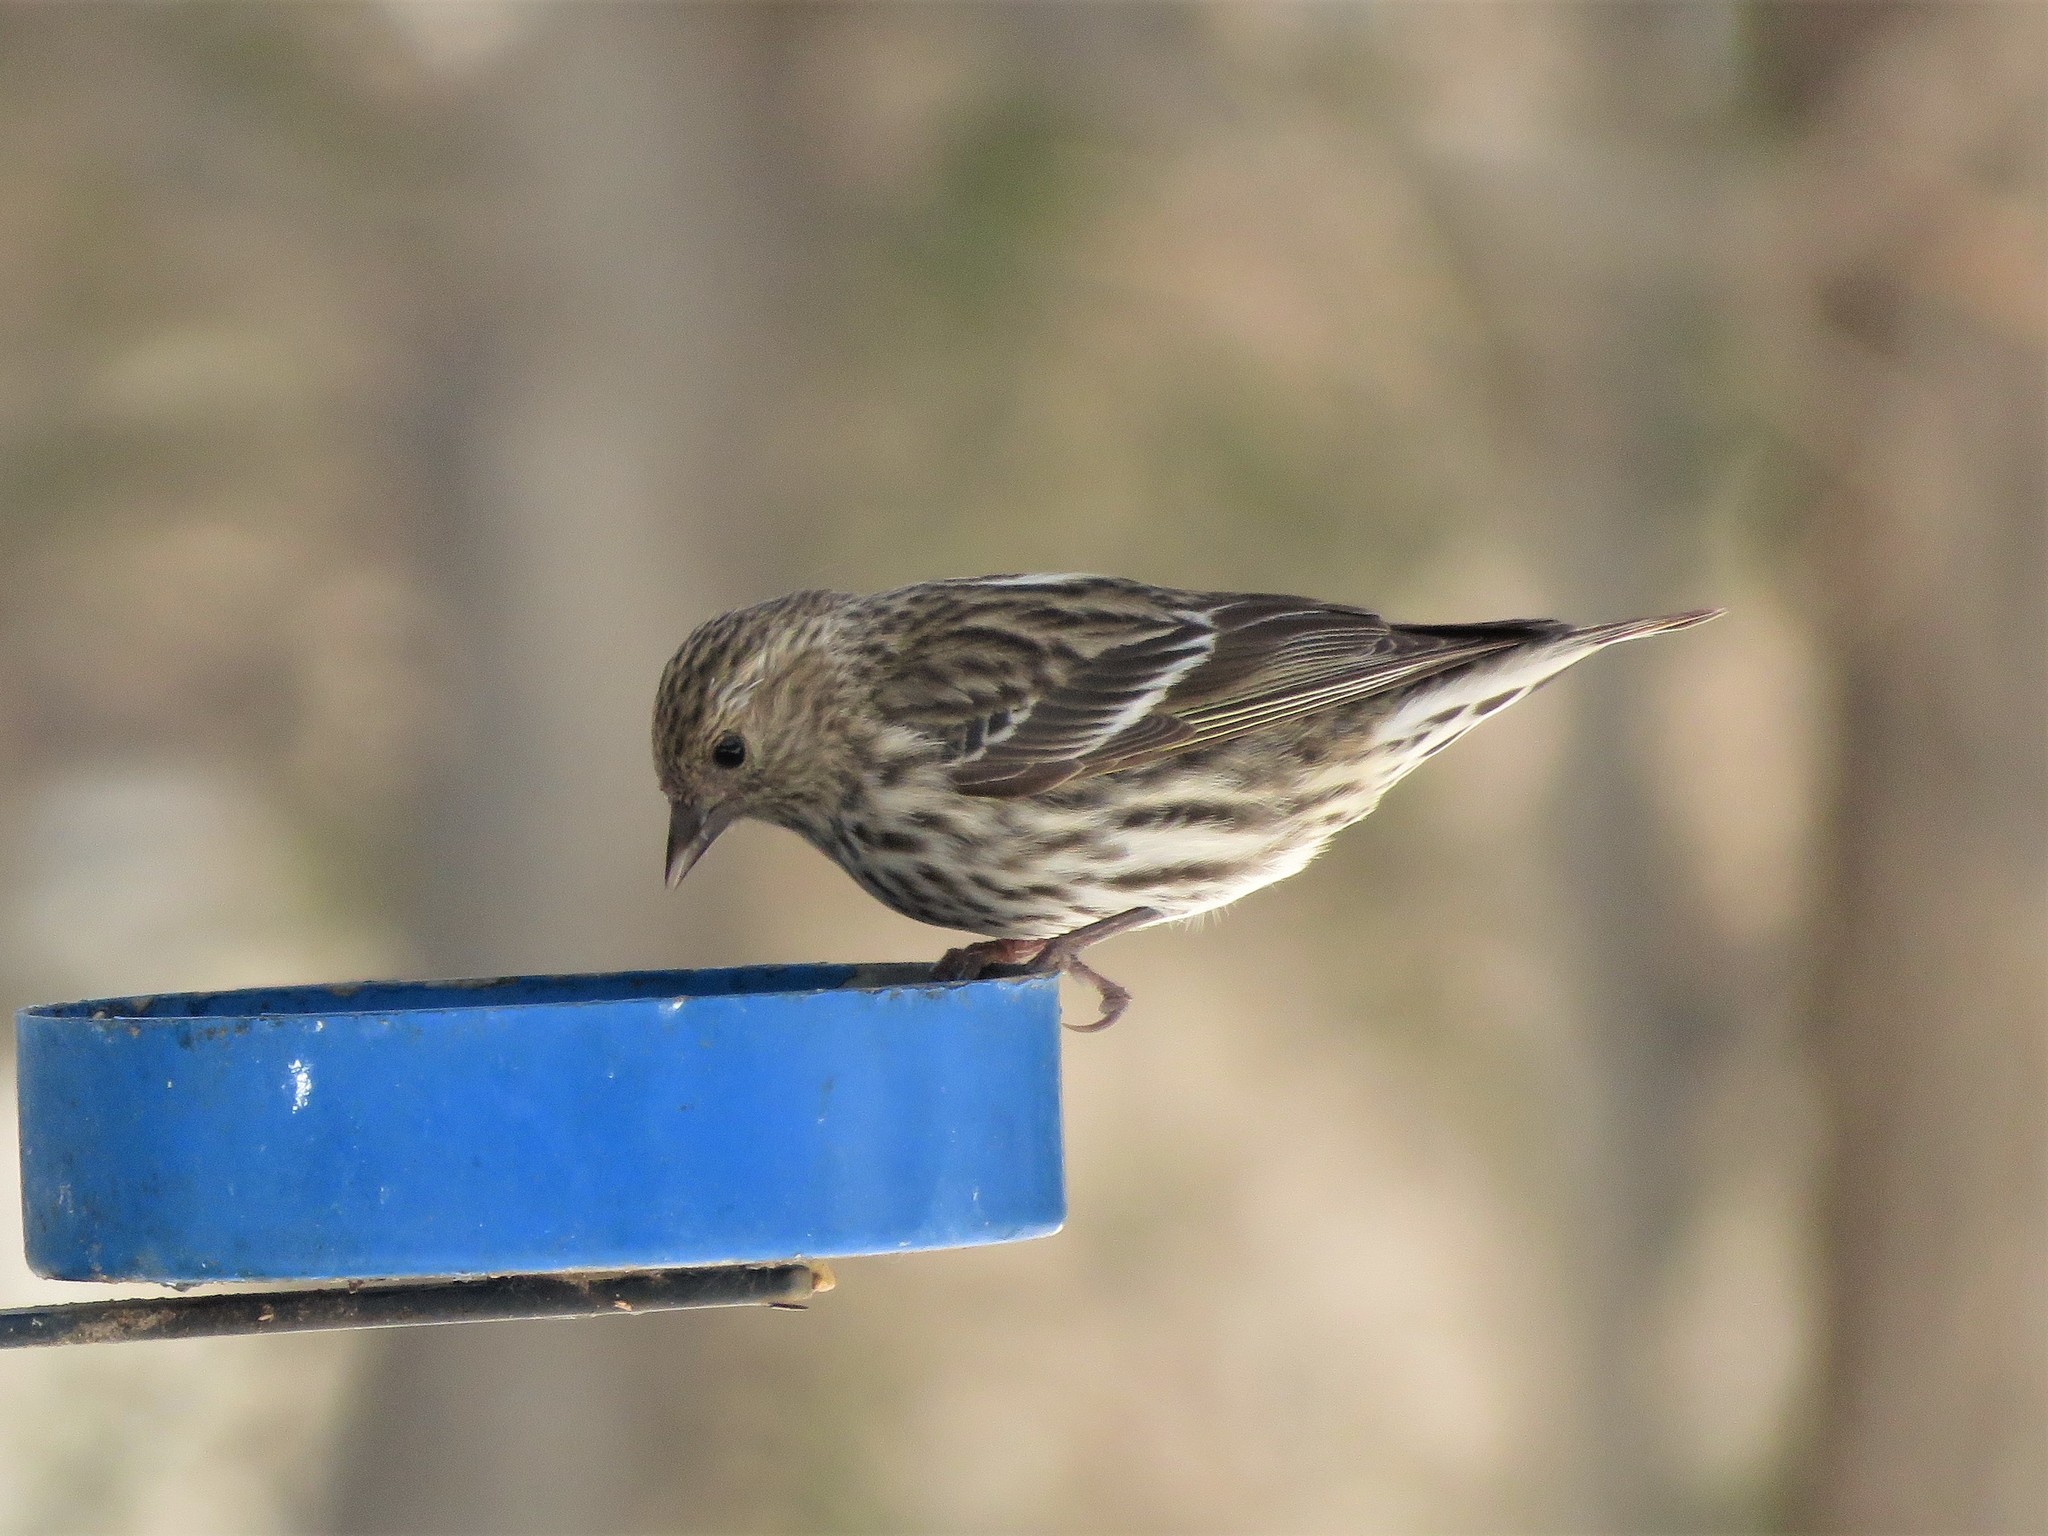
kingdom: Animalia
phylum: Chordata
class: Aves
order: Passeriformes
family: Fringillidae
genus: Spinus
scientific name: Spinus pinus
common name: Pine siskin
